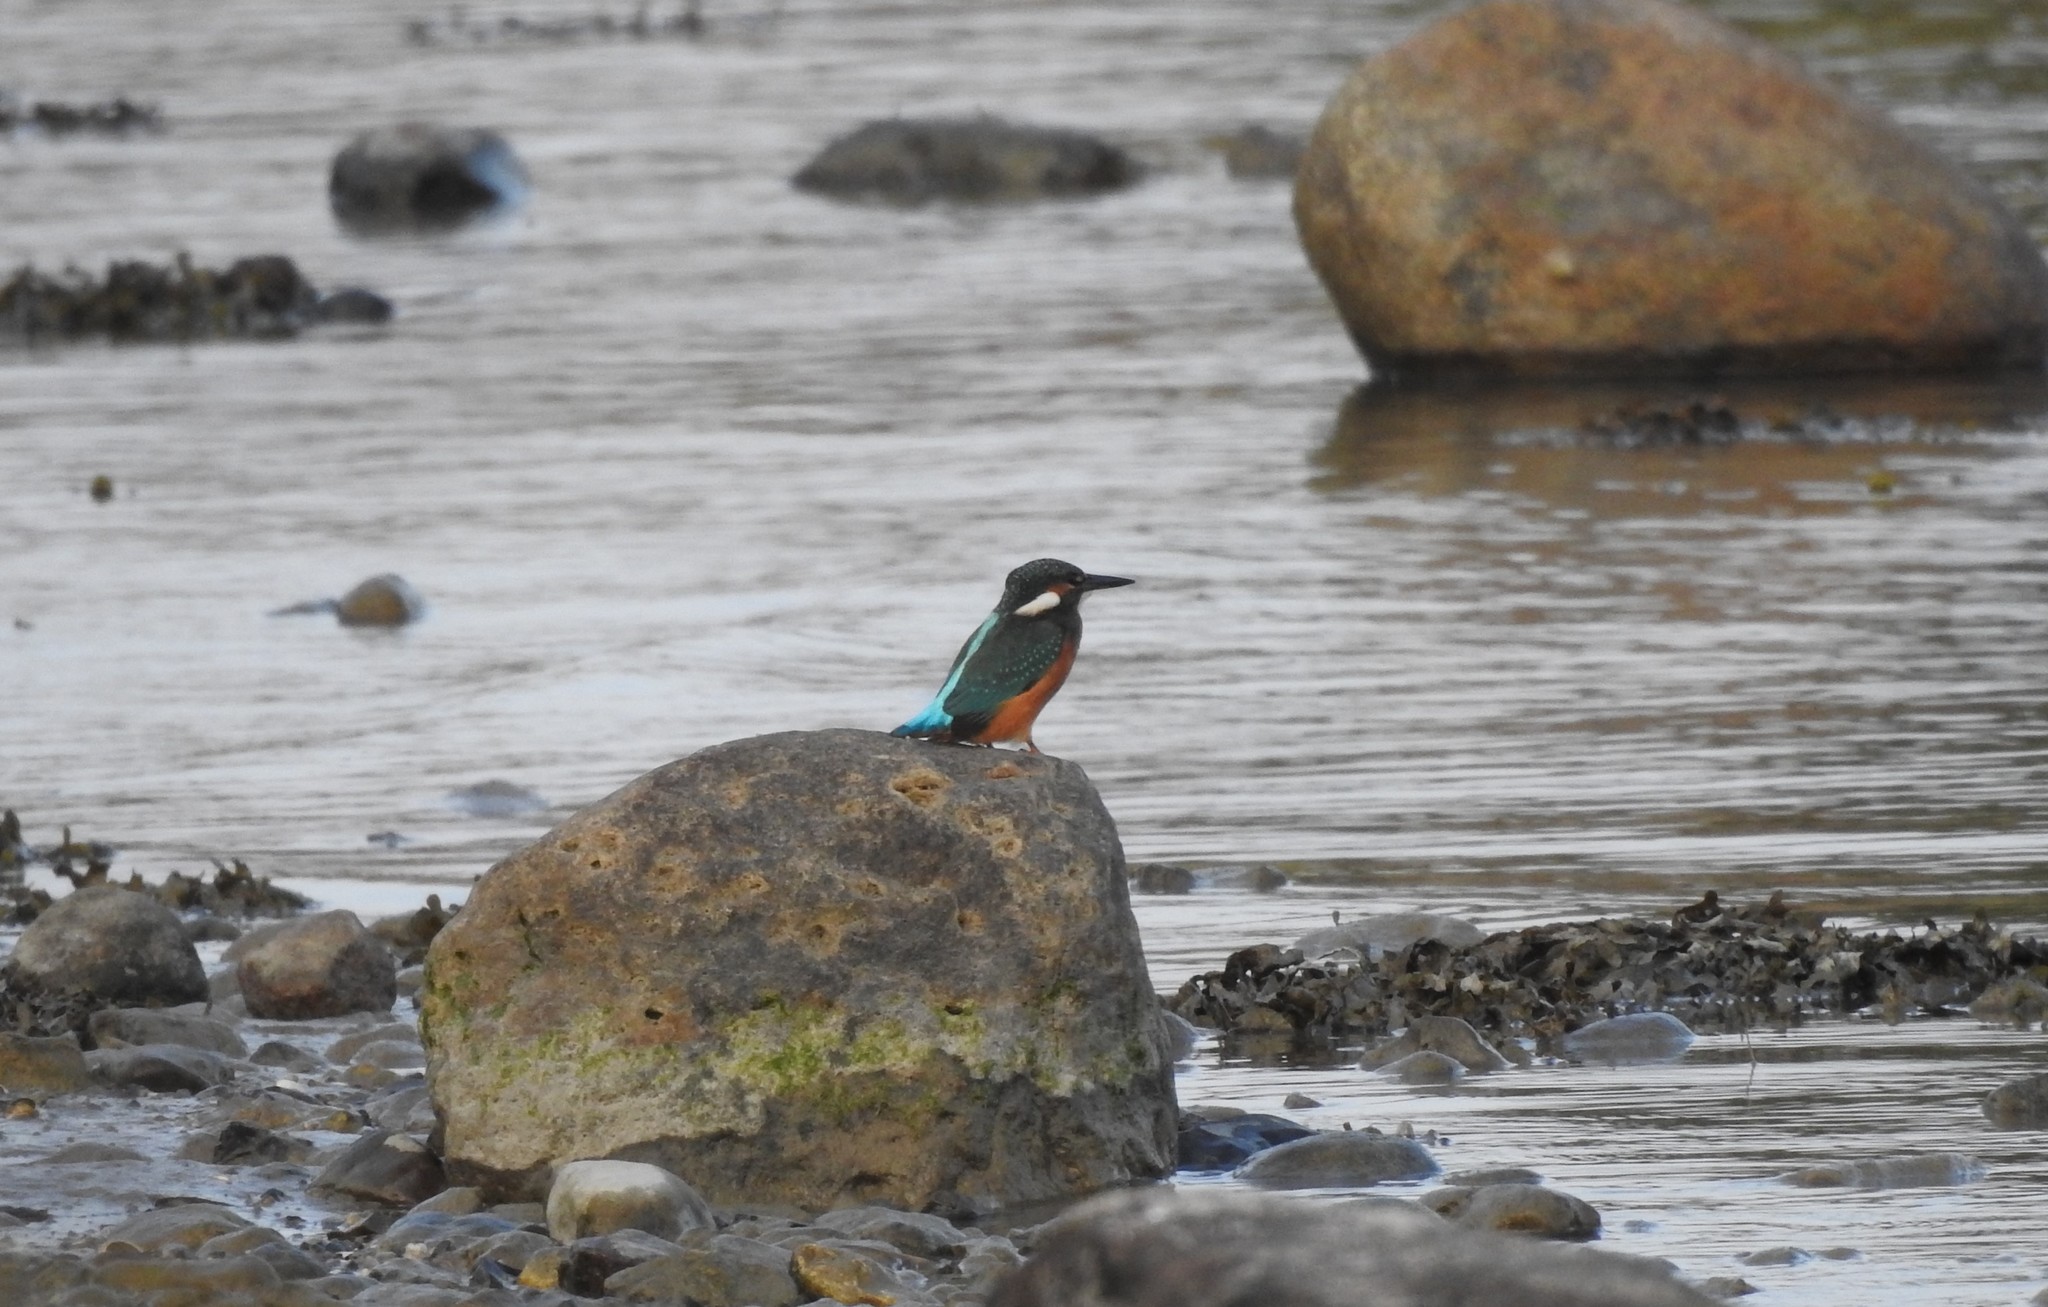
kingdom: Animalia
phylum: Chordata
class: Aves
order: Coraciiformes
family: Alcedinidae
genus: Alcedo
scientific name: Alcedo atthis
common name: Common kingfisher
